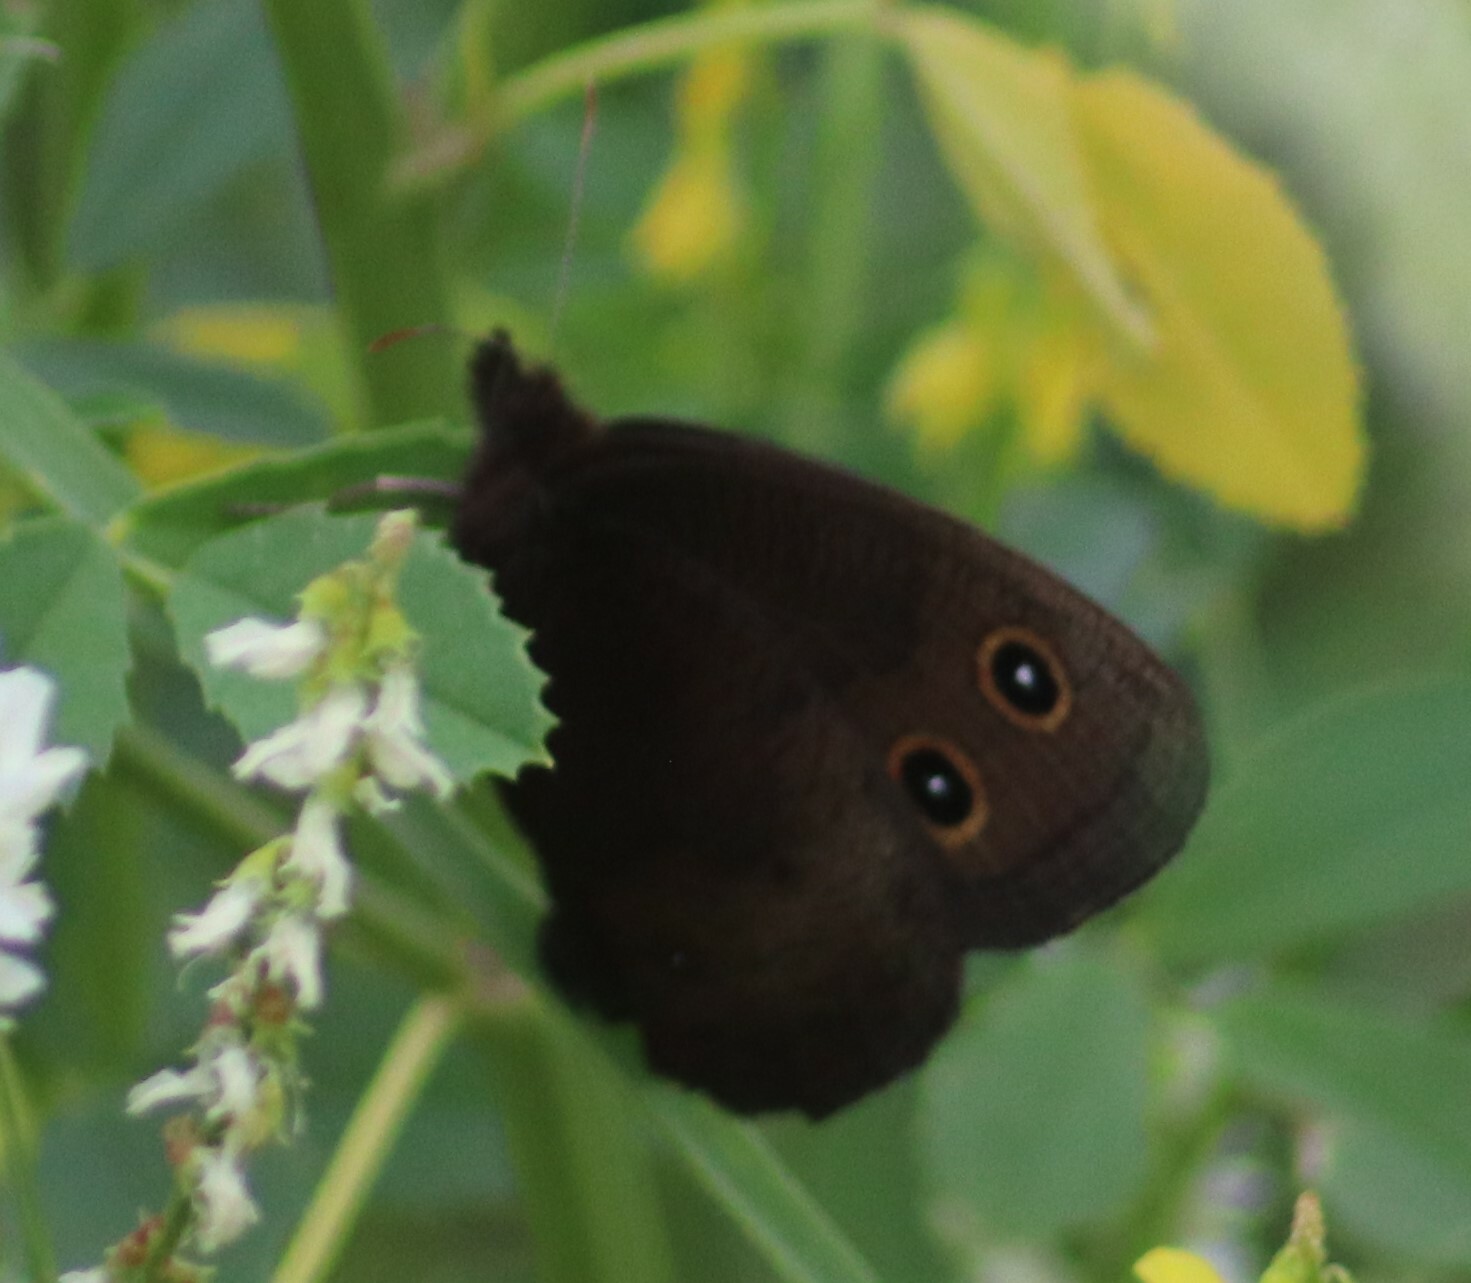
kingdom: Animalia
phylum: Arthropoda
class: Insecta
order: Lepidoptera
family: Nymphalidae
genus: Cercyonis
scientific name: Cercyonis pegala
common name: Common wood-nymph
